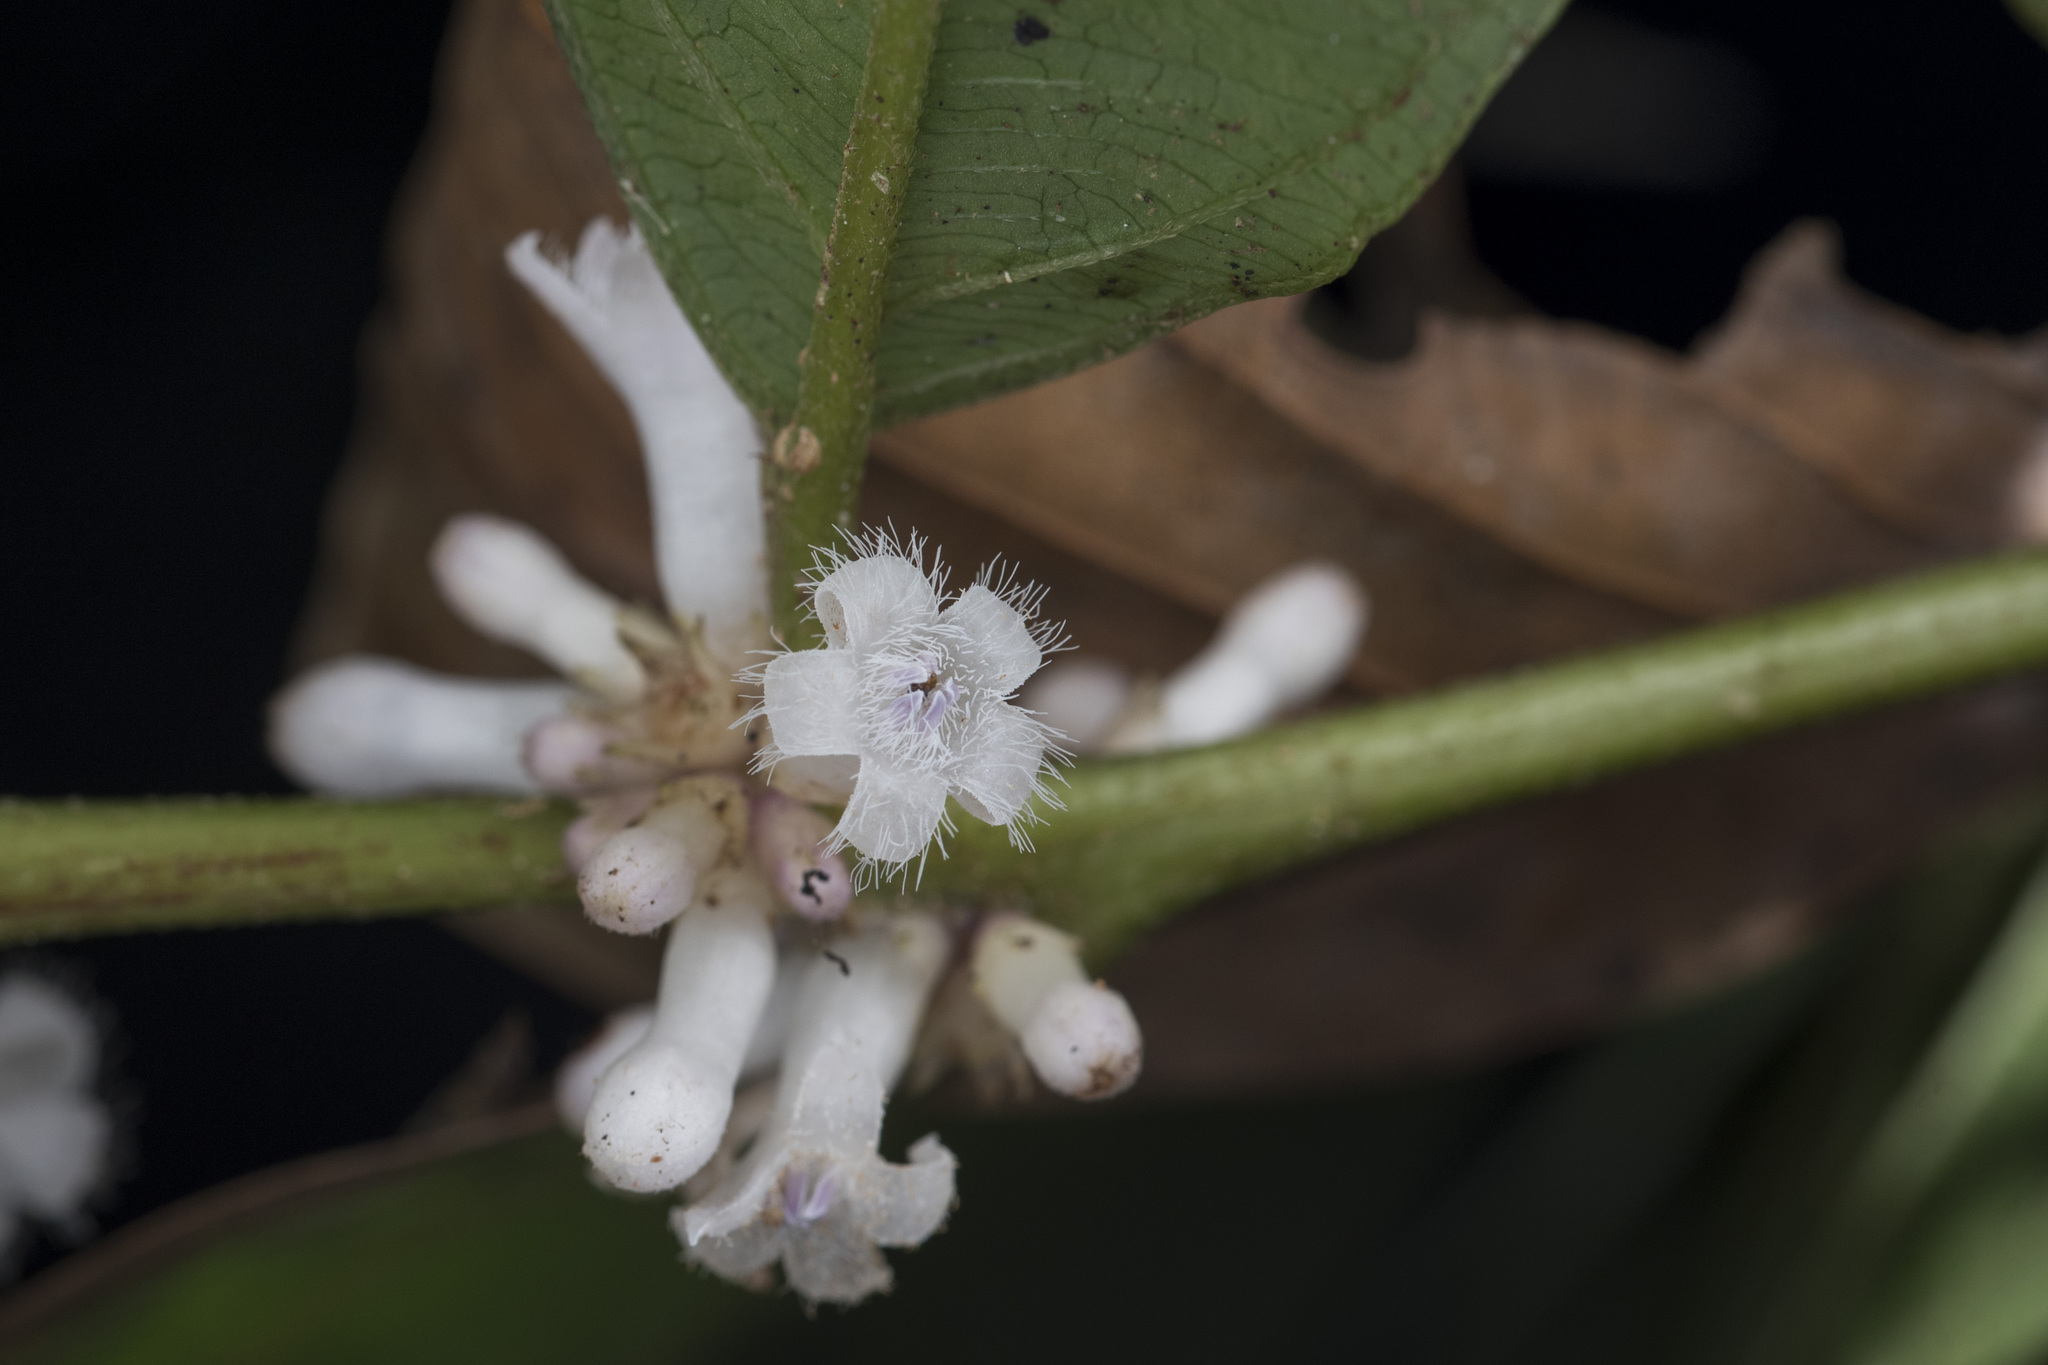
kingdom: Plantae
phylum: Tracheophyta
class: Magnoliopsida
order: Gentianales
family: Rubiaceae
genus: Lasianthus
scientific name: Lasianthus fordii
